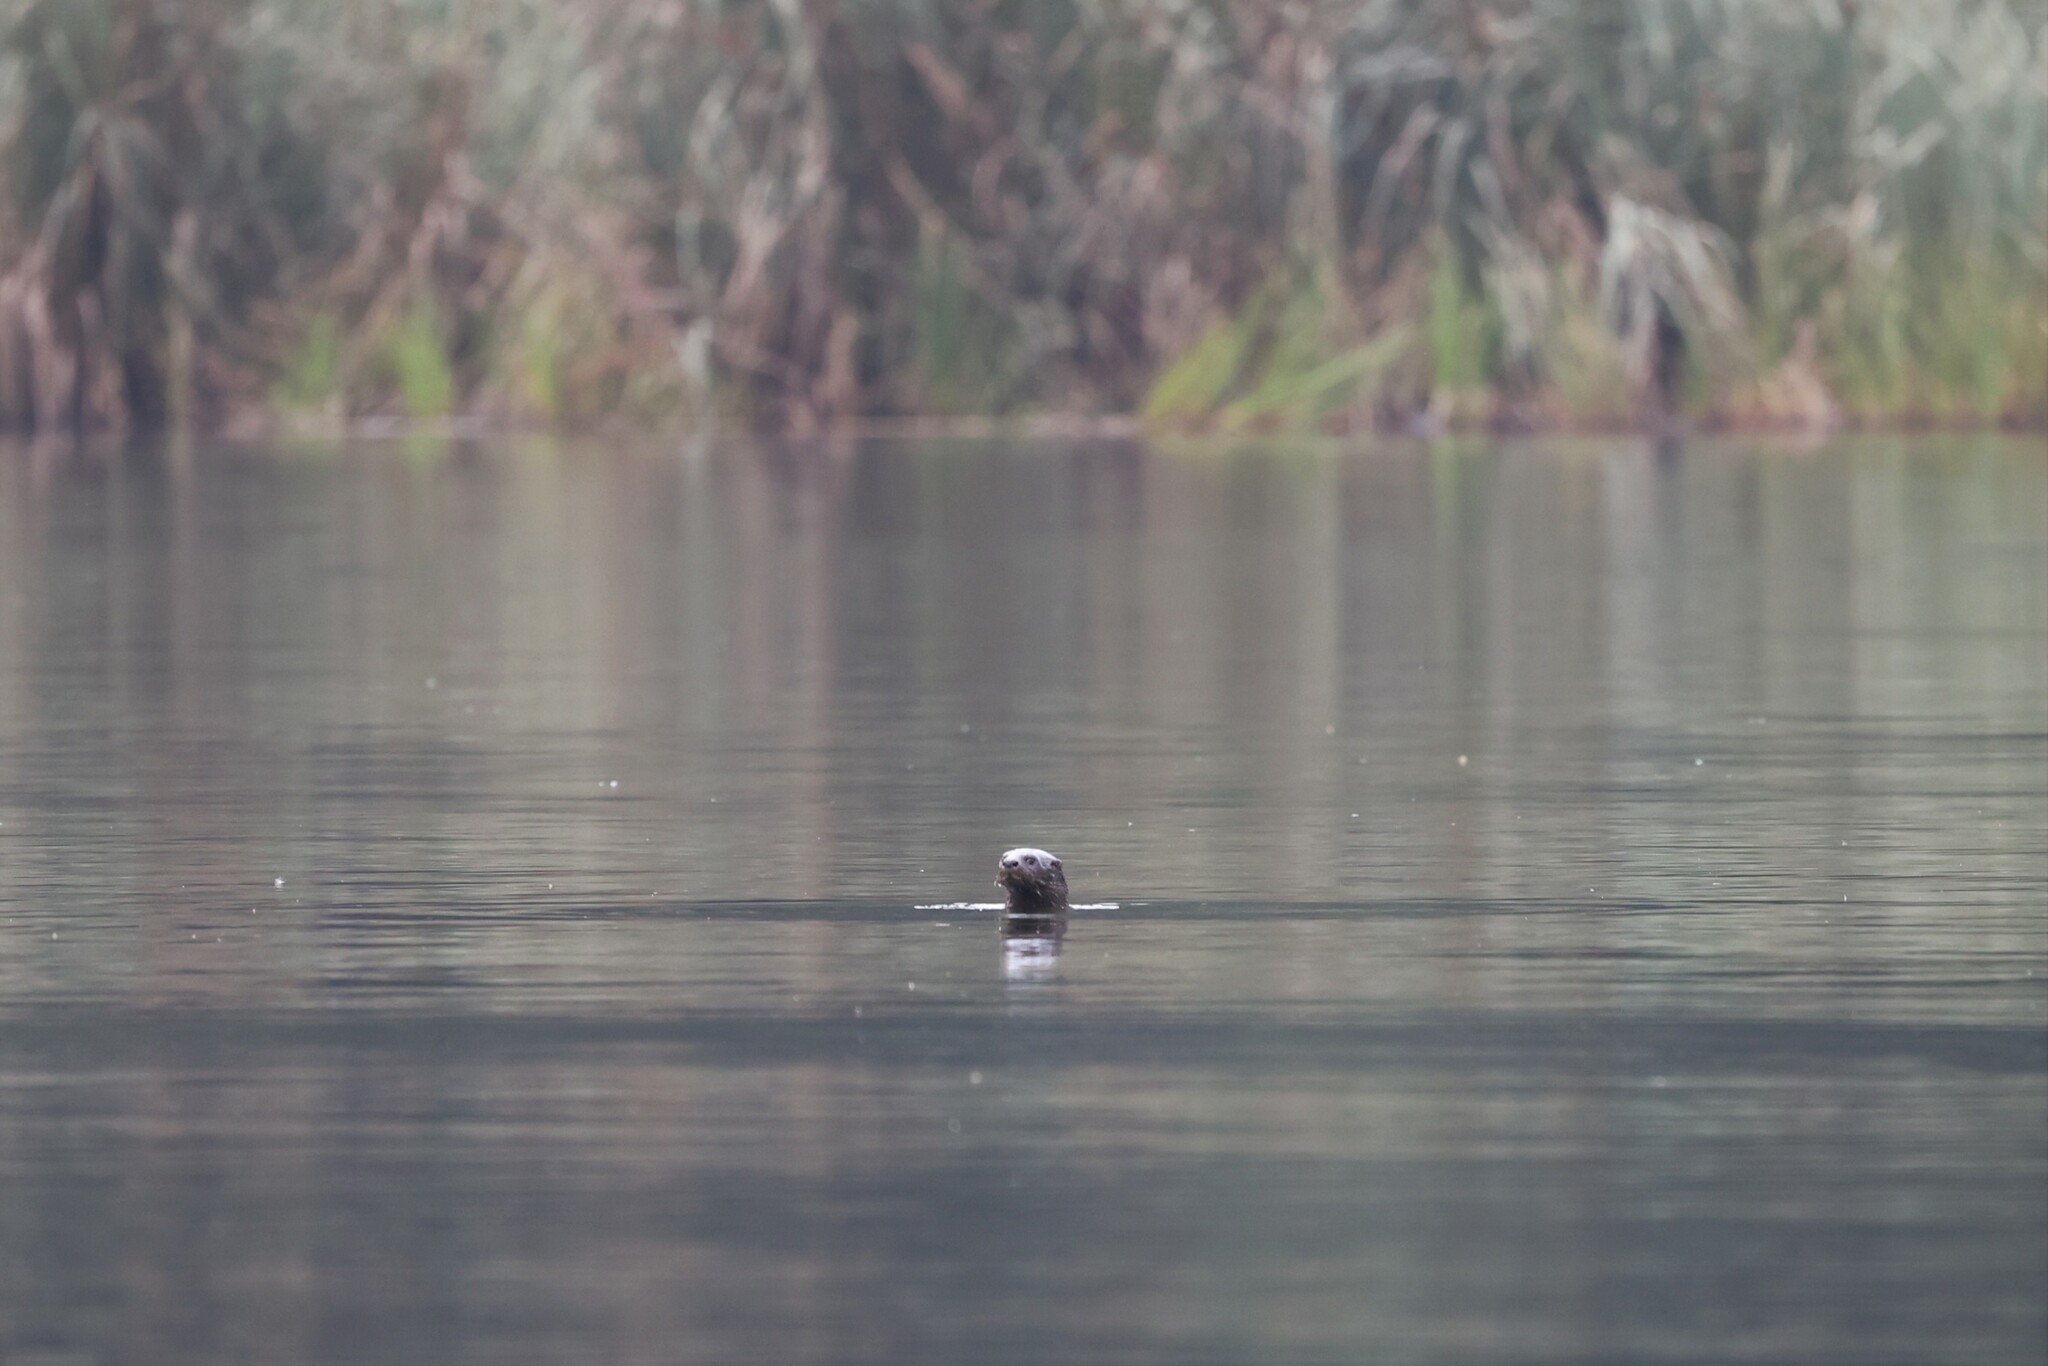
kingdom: Animalia
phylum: Chordata
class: Mammalia
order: Carnivora
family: Mustelidae
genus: Hydrictis
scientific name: Hydrictis maculicollis
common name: Spotted-necked otter
